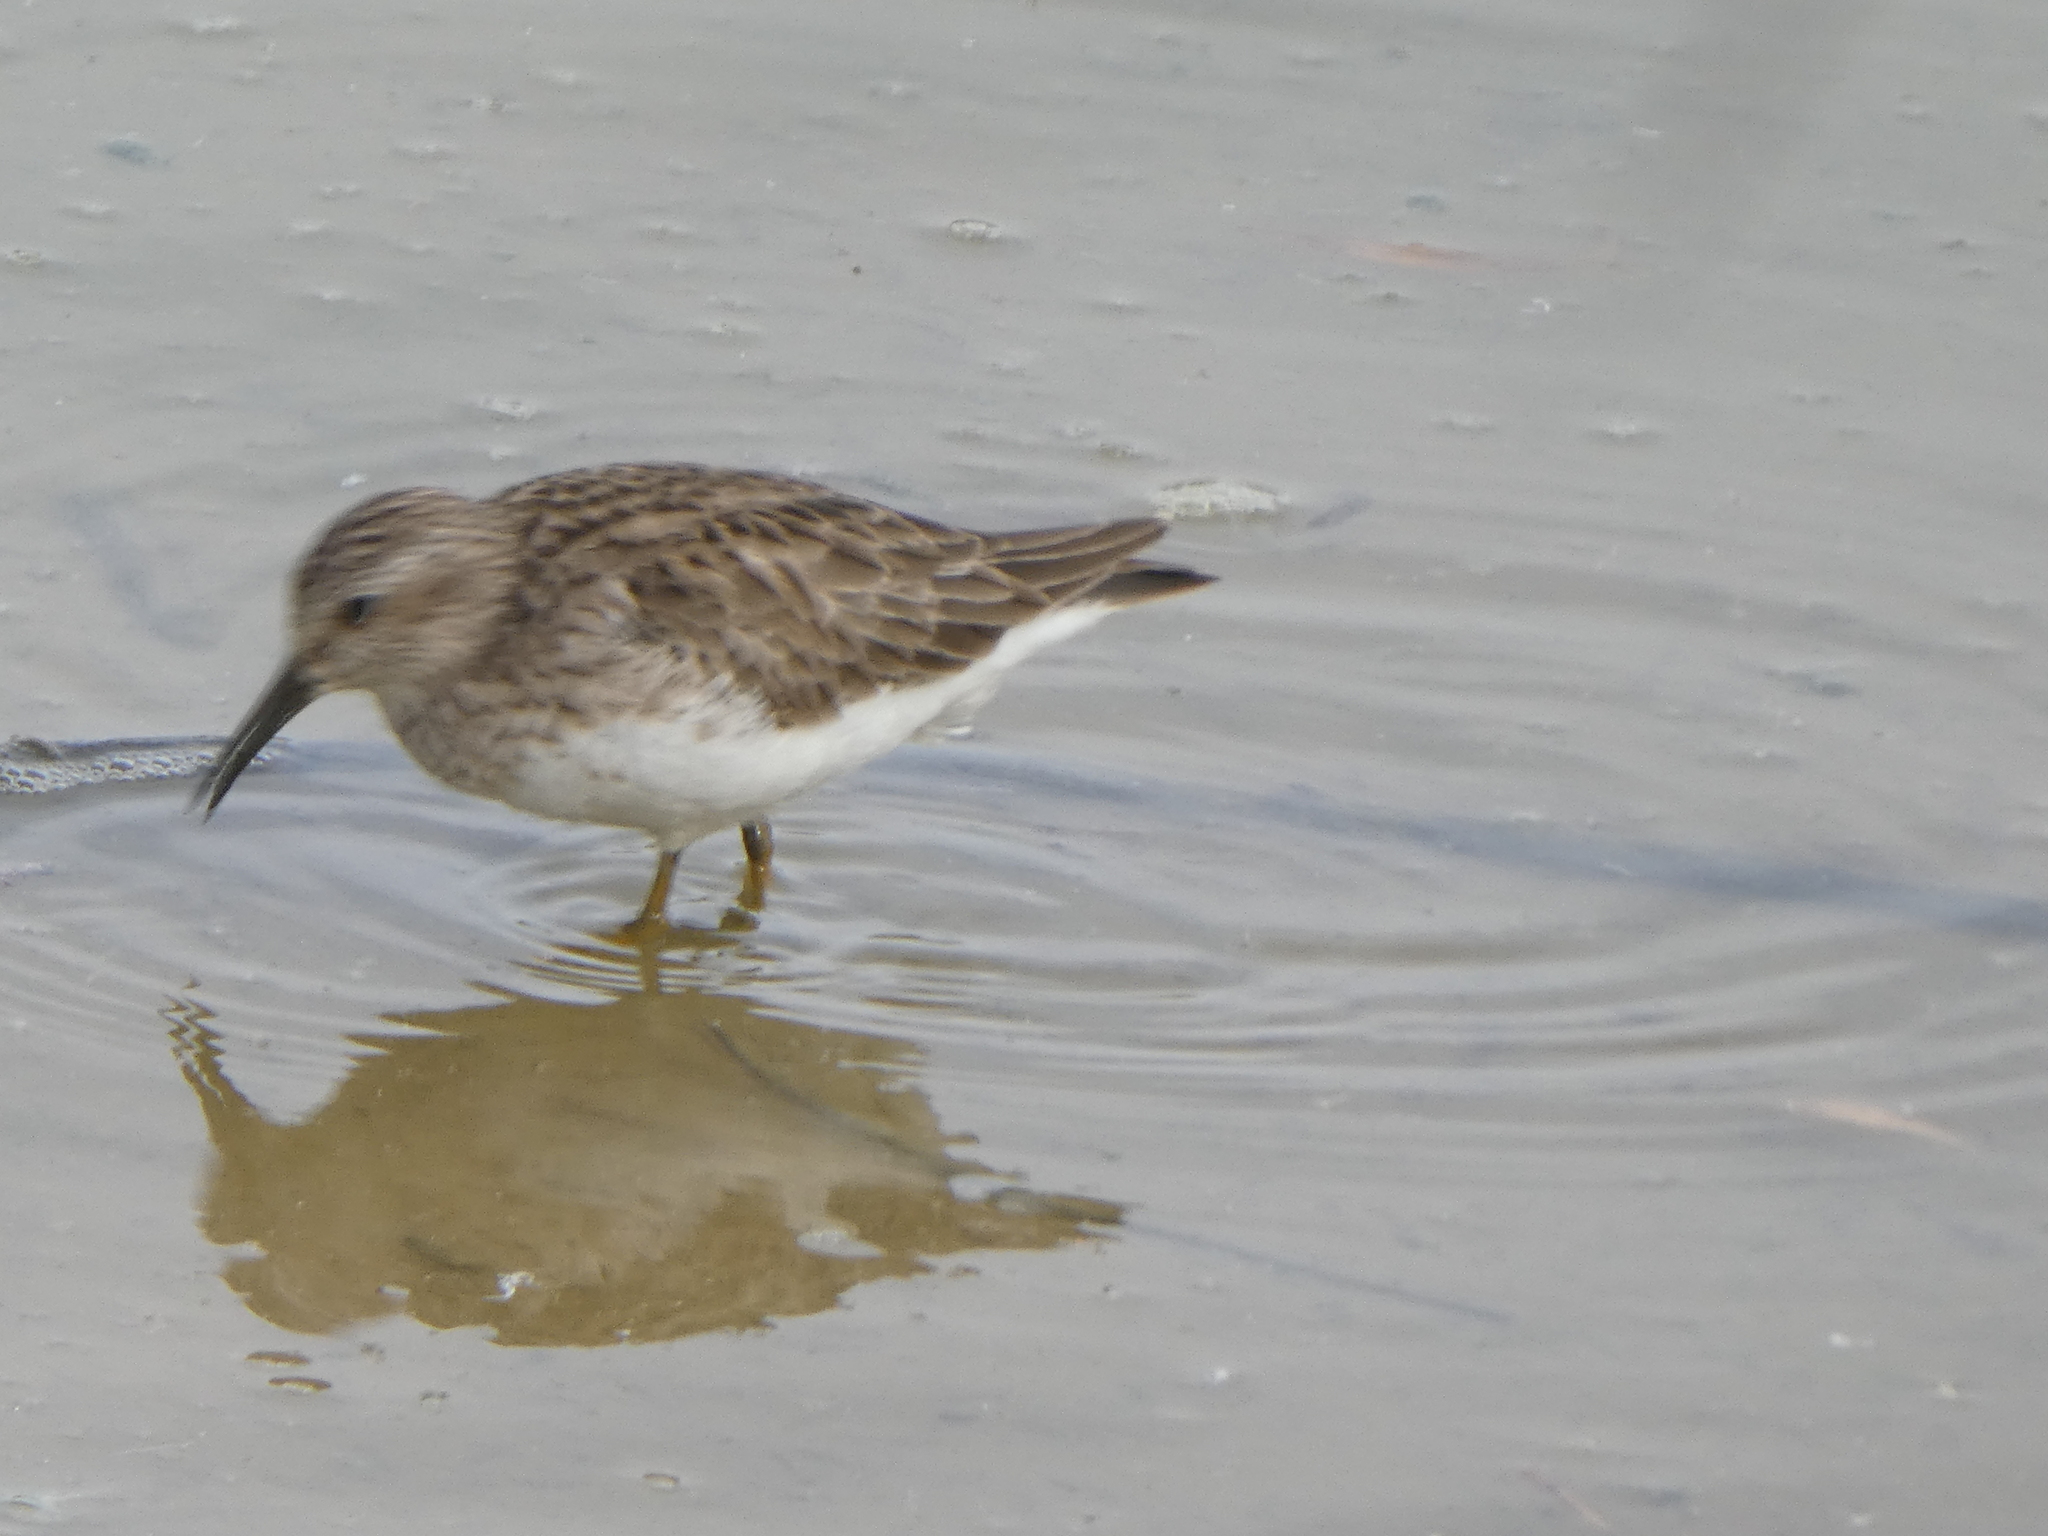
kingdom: Animalia
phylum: Chordata
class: Aves
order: Charadriiformes
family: Scolopacidae
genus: Calidris
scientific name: Calidris minutilla
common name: Least sandpiper
